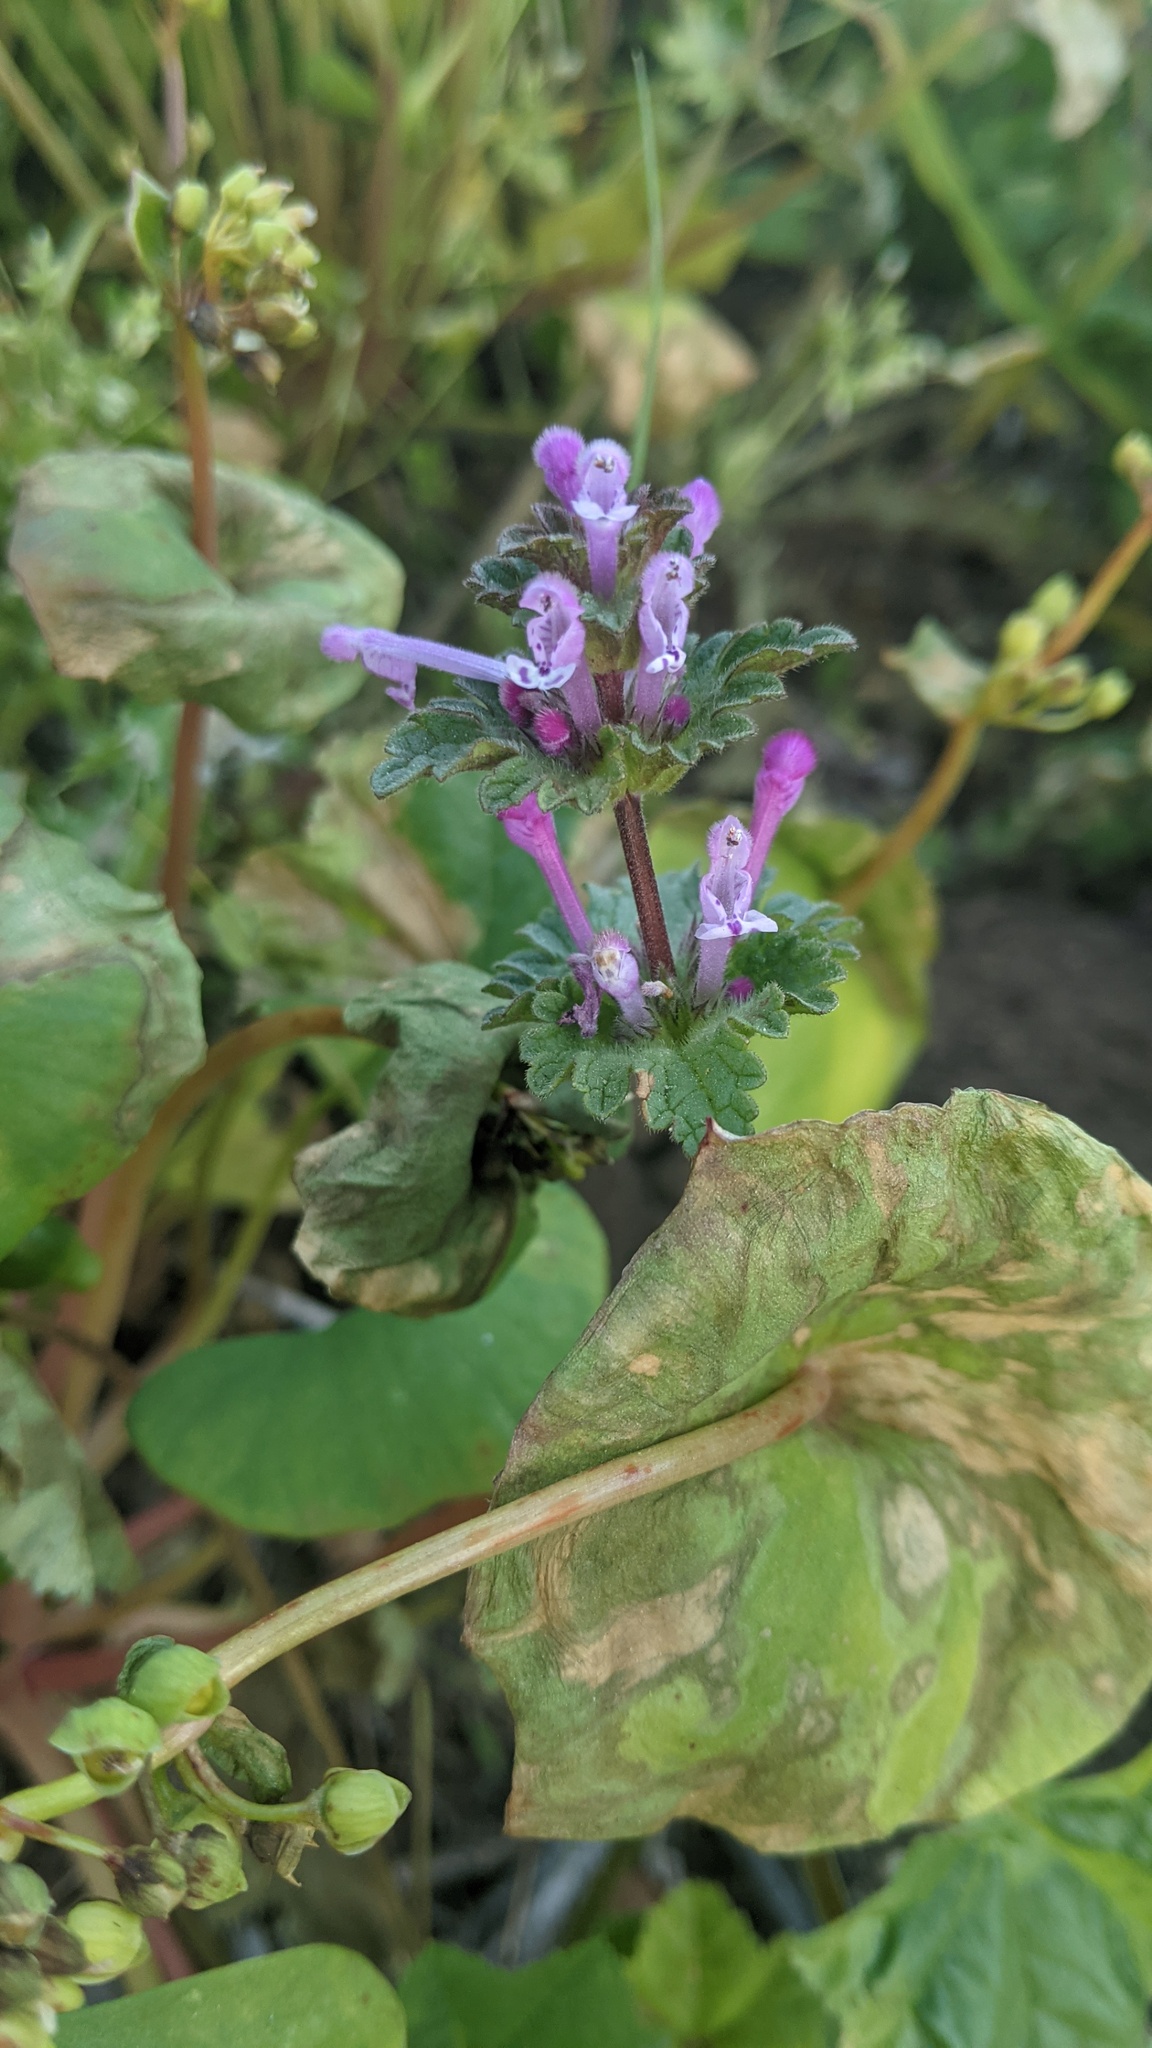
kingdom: Plantae
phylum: Tracheophyta
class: Magnoliopsida
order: Lamiales
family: Lamiaceae
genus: Lamium
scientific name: Lamium amplexicaule
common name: Henbit dead-nettle
